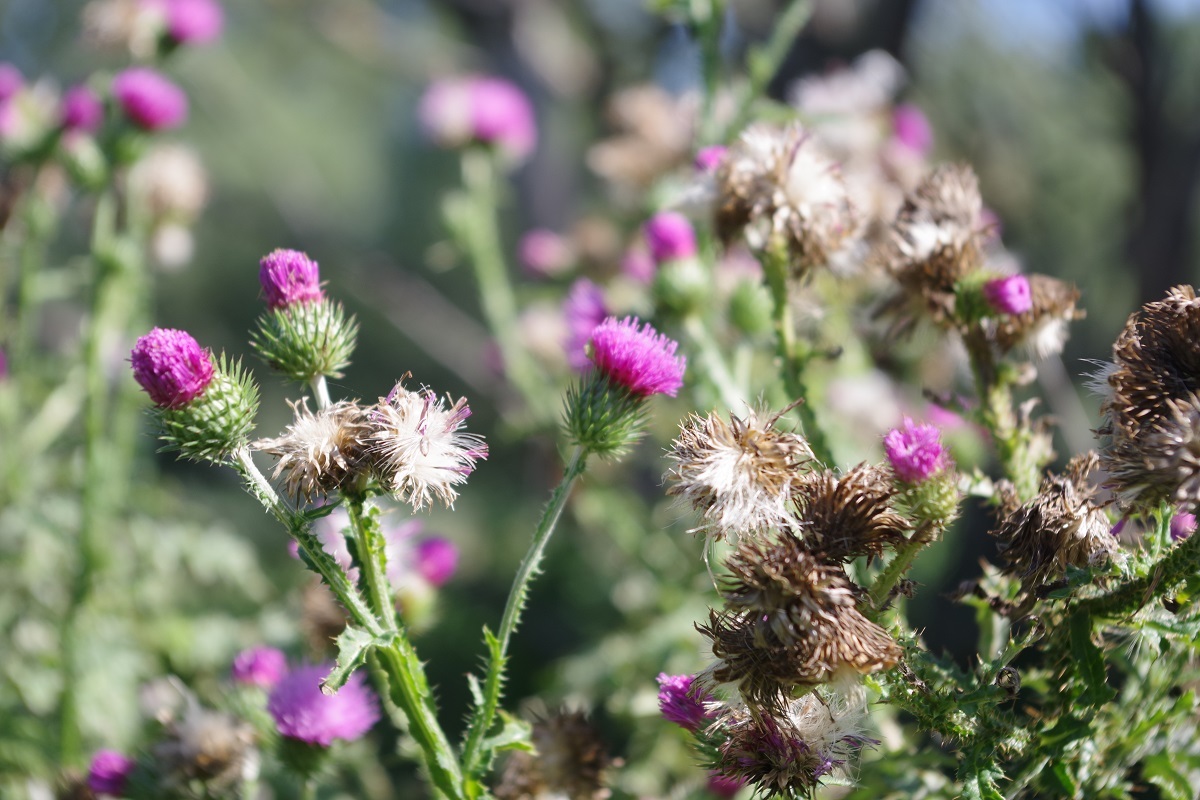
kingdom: Plantae
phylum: Tracheophyta
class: Magnoliopsida
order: Asterales
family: Asteraceae
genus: Carduus
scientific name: Carduus crispus
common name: Welted thistle
